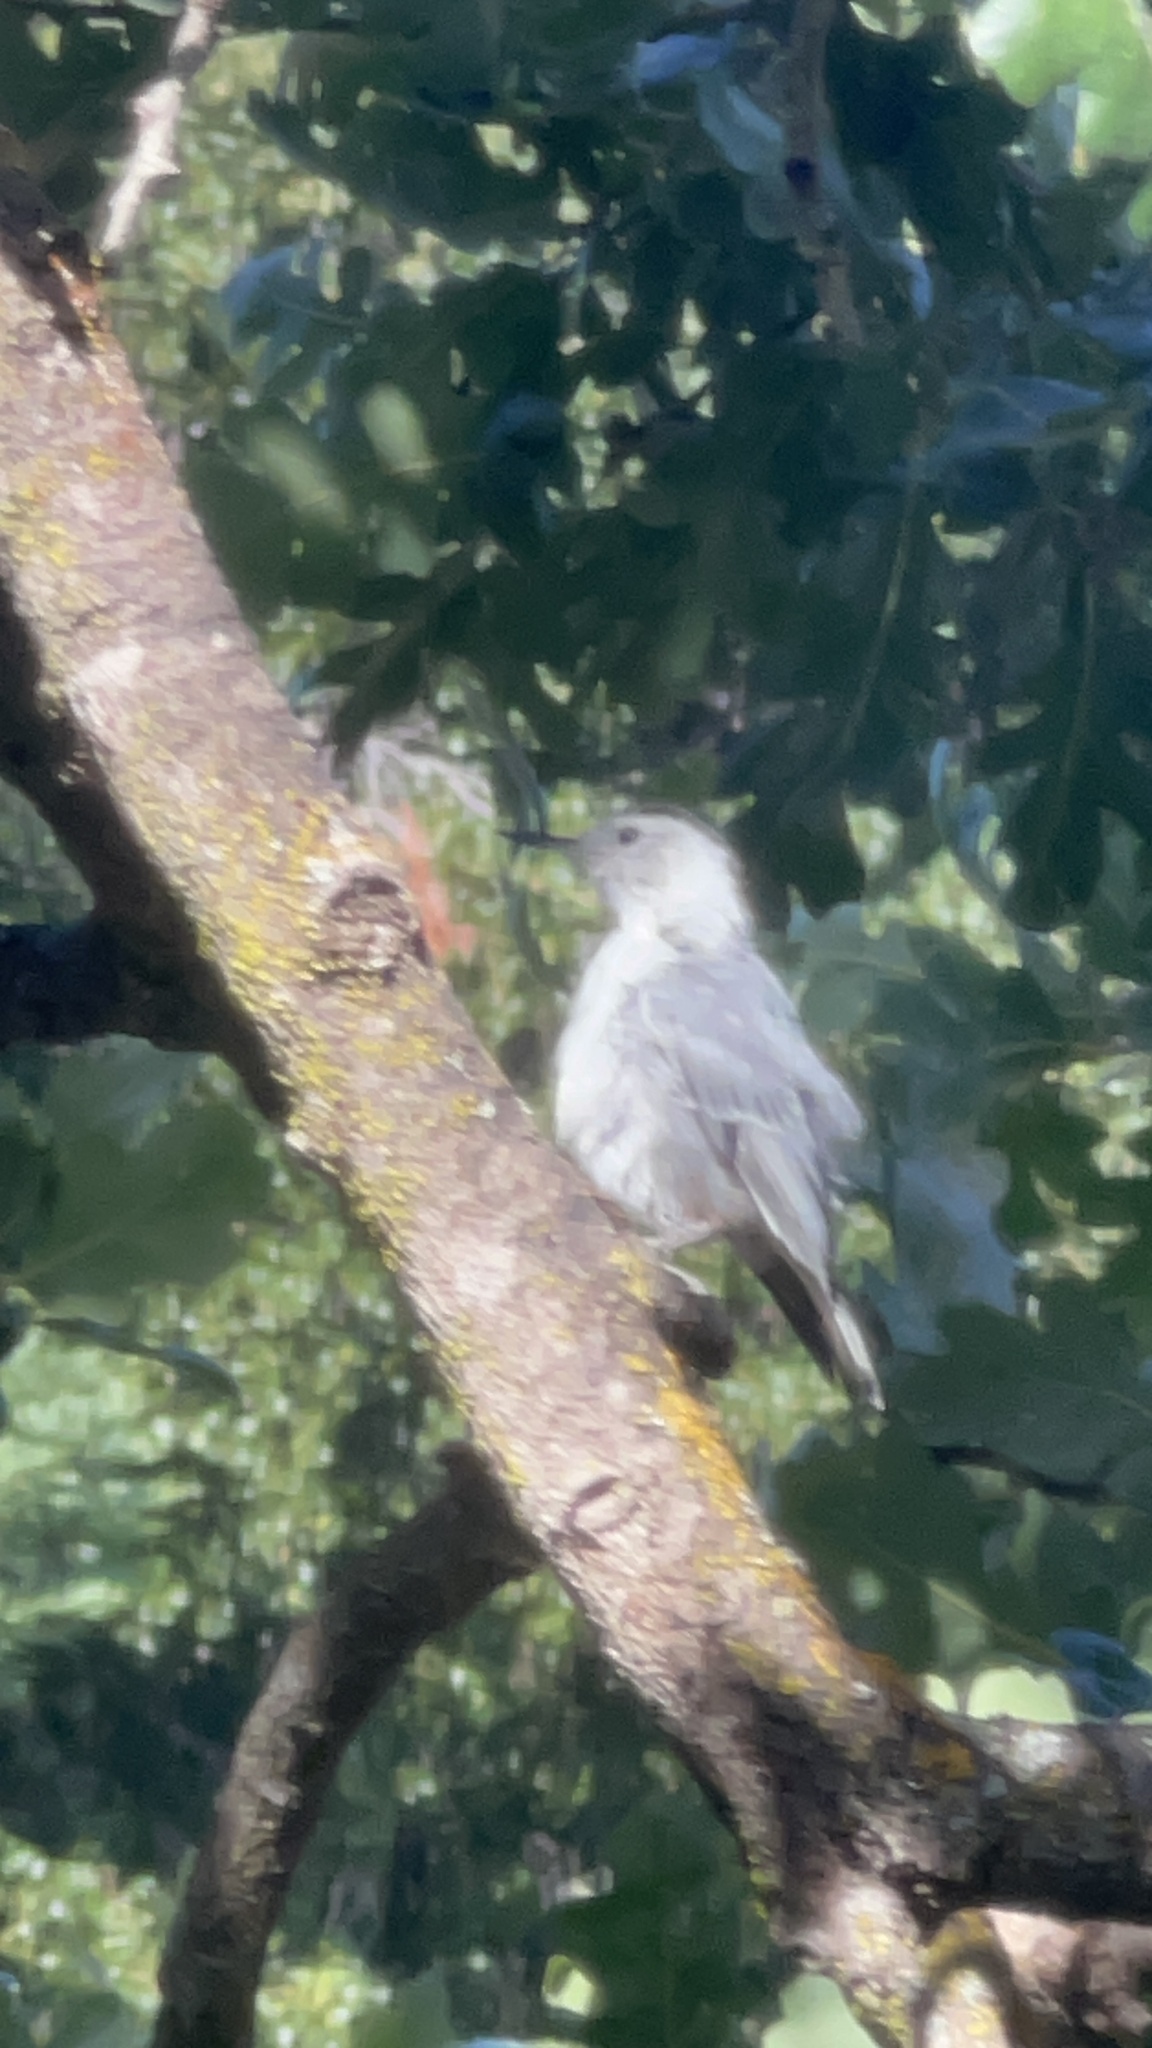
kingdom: Animalia
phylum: Chordata
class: Aves
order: Passeriformes
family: Sittidae
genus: Sitta
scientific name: Sitta carolinensis
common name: White-breasted nuthatch
